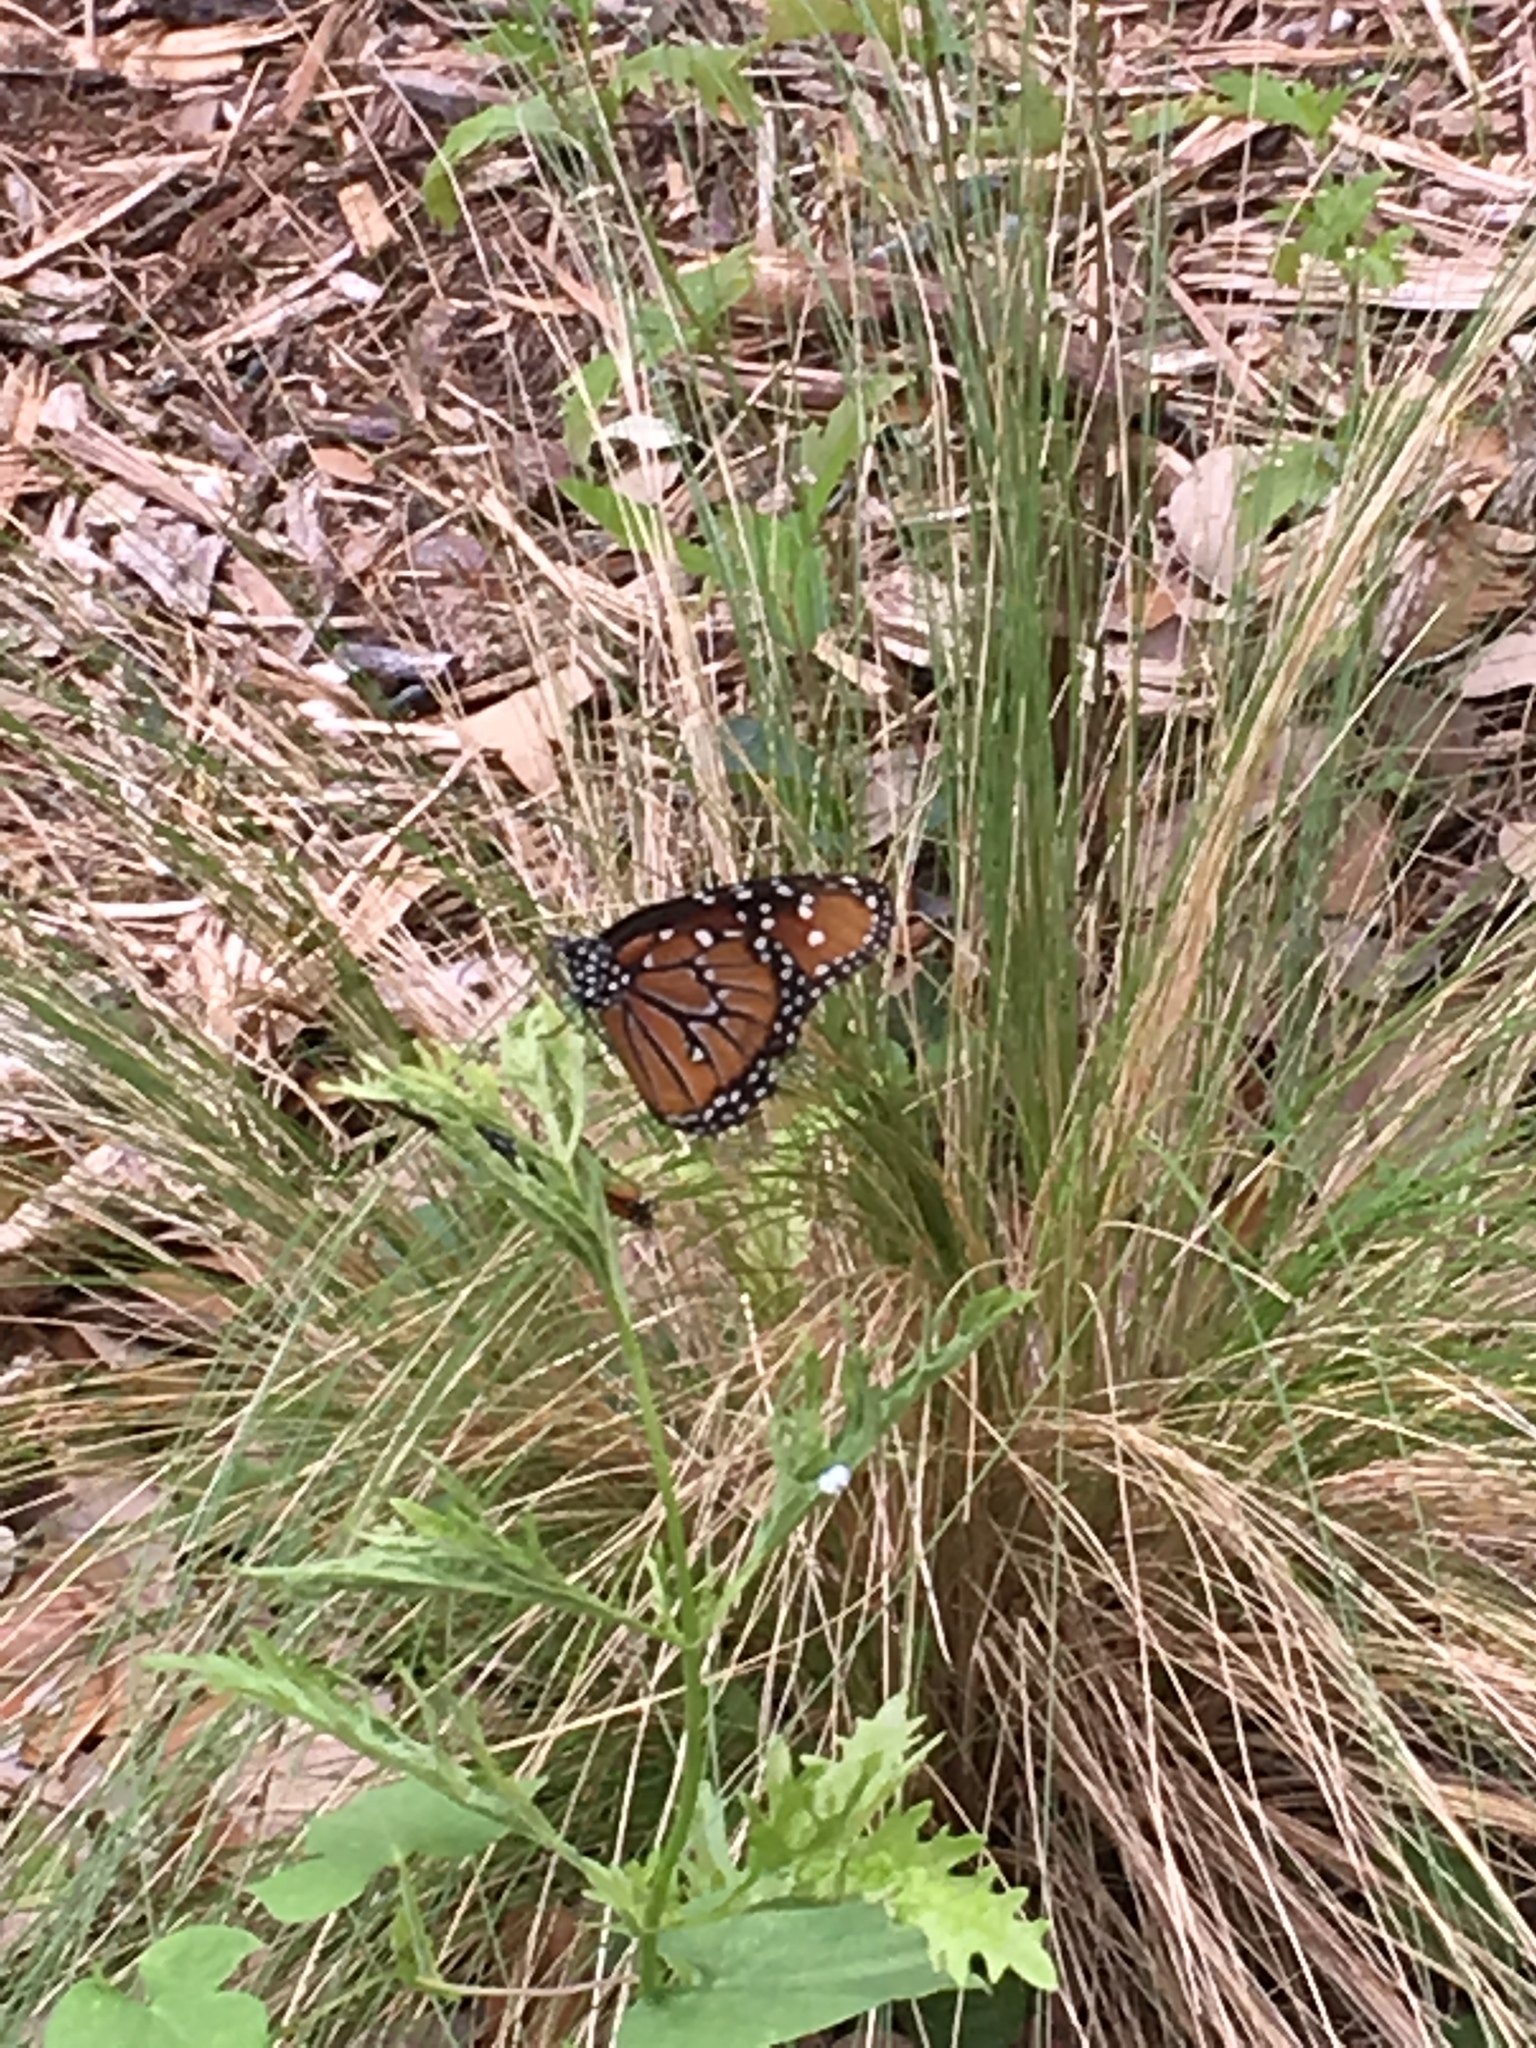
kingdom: Animalia
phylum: Arthropoda
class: Insecta
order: Lepidoptera
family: Nymphalidae
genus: Danaus
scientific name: Danaus gilippus
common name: Queen
